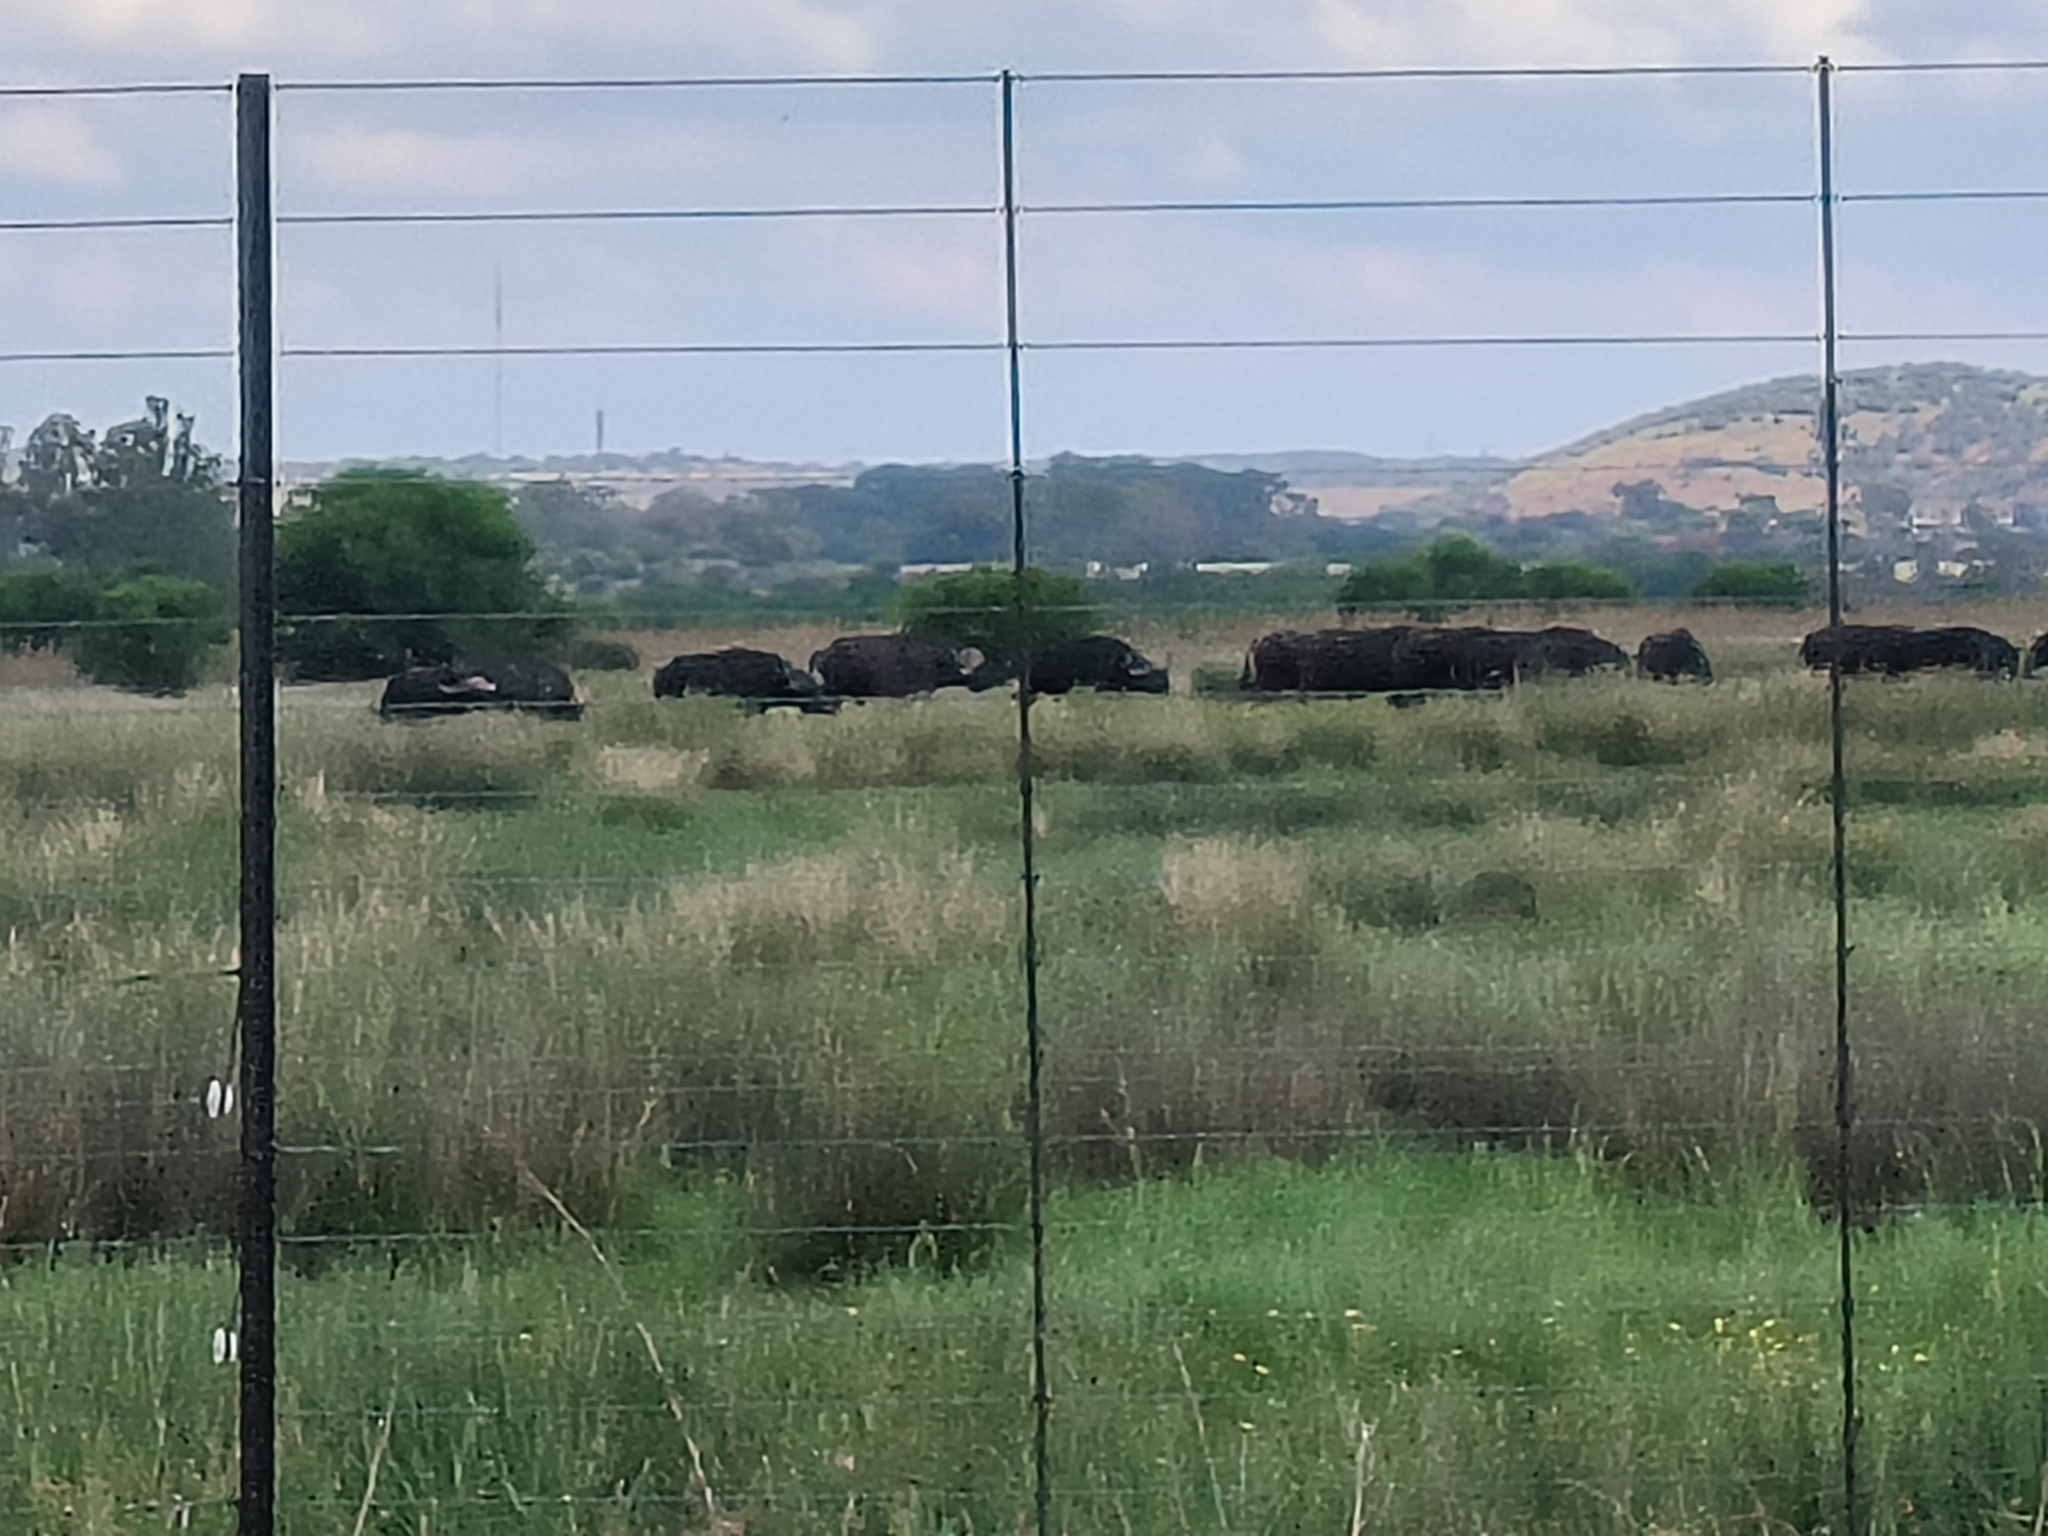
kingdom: Animalia
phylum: Chordata
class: Mammalia
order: Artiodactyla
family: Bovidae
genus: Syncerus
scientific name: Syncerus caffer
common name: African buffalo
